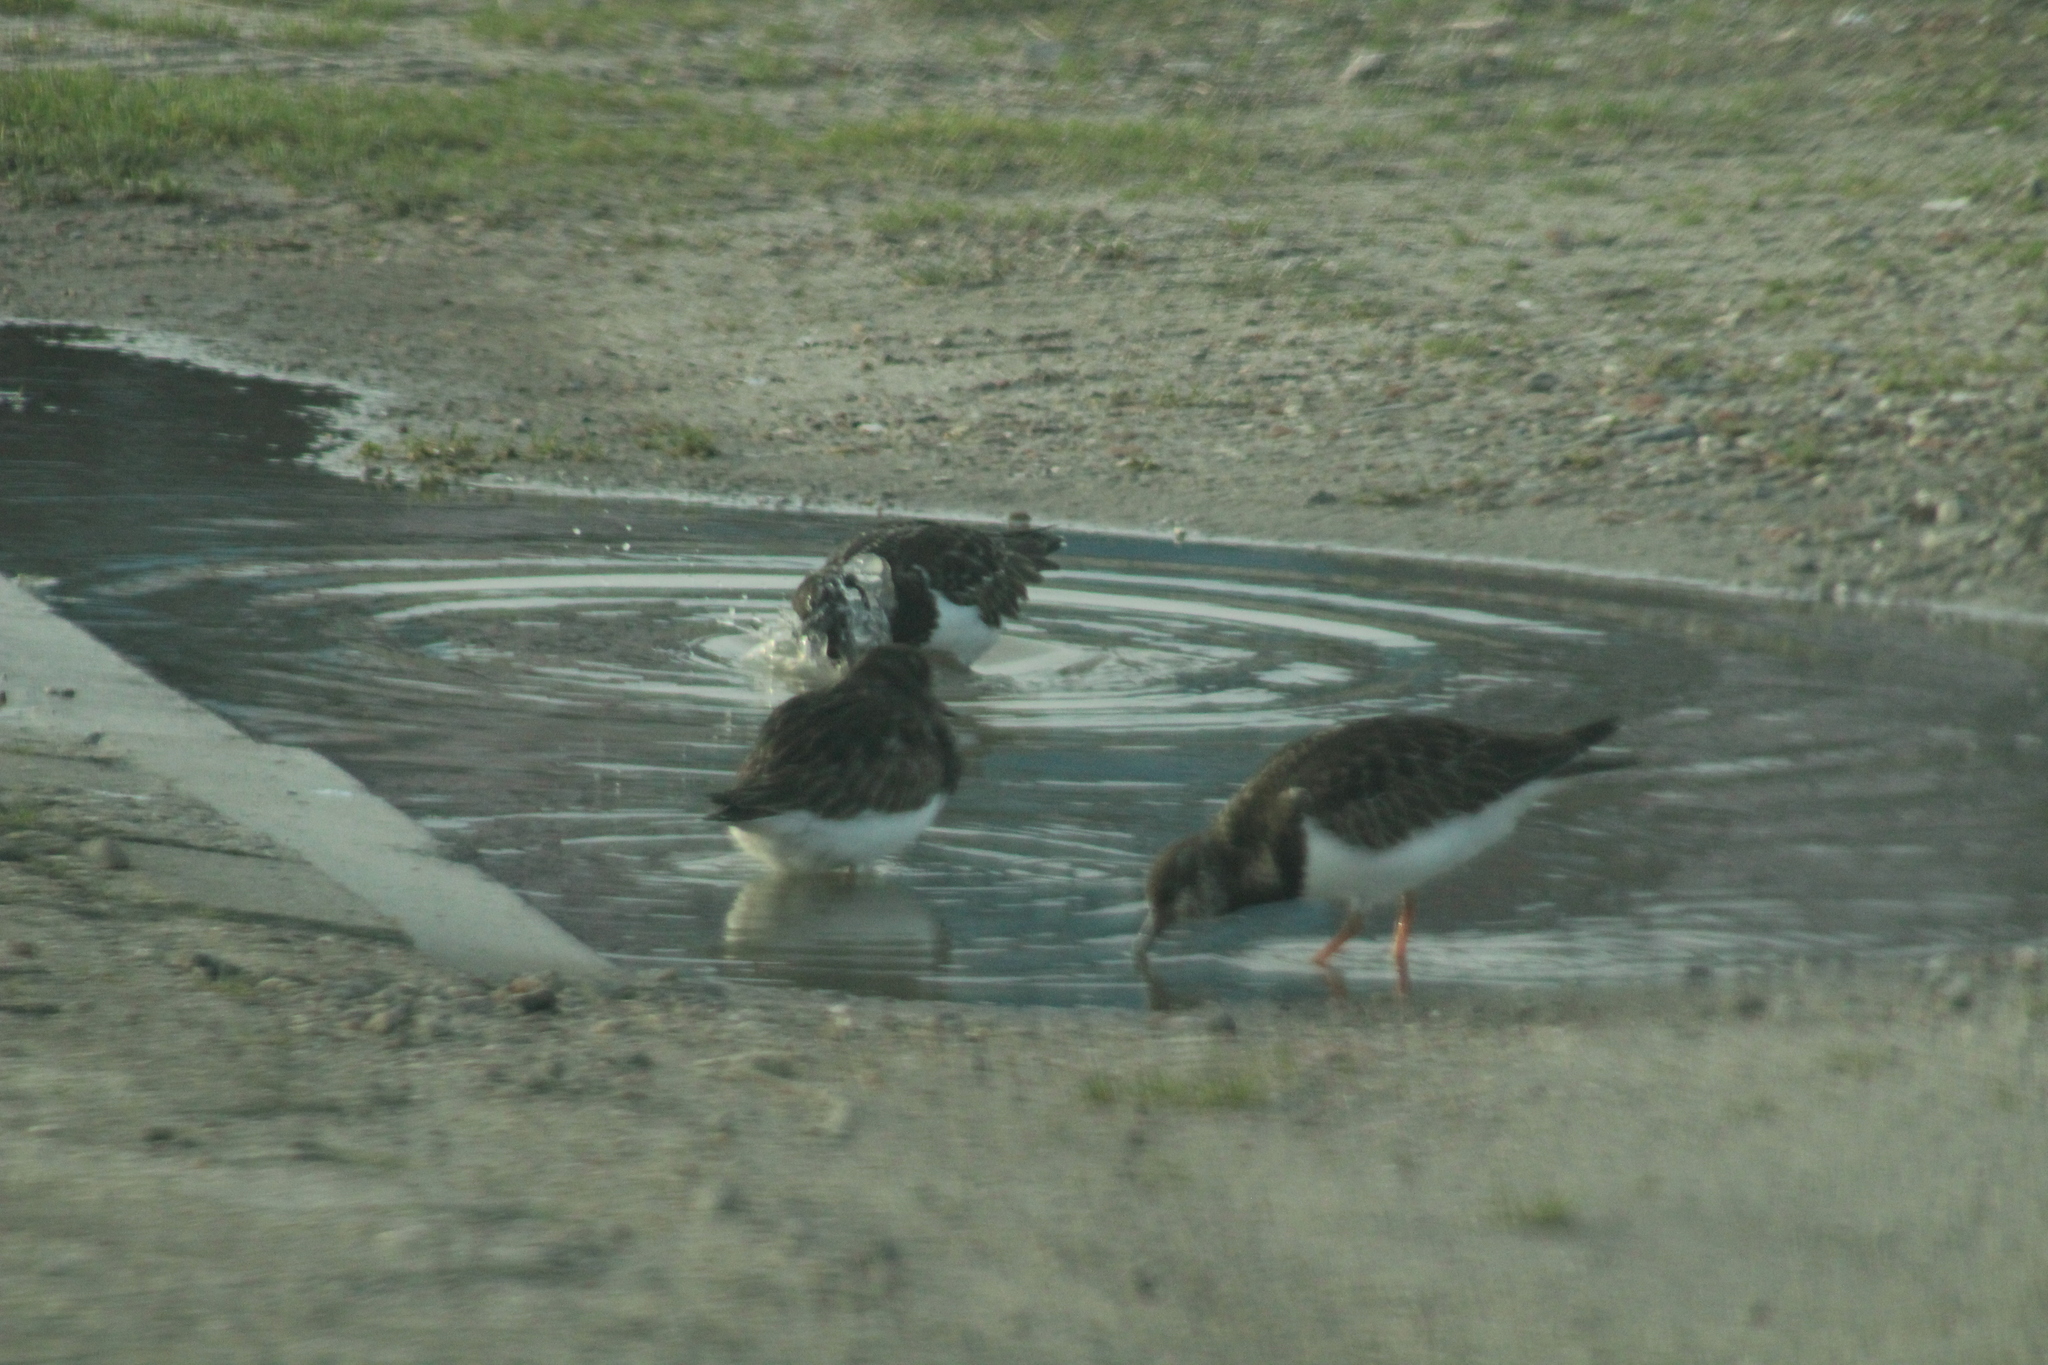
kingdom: Animalia
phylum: Chordata
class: Aves
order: Charadriiformes
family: Scolopacidae
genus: Arenaria
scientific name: Arenaria interpres
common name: Ruddy turnstone
